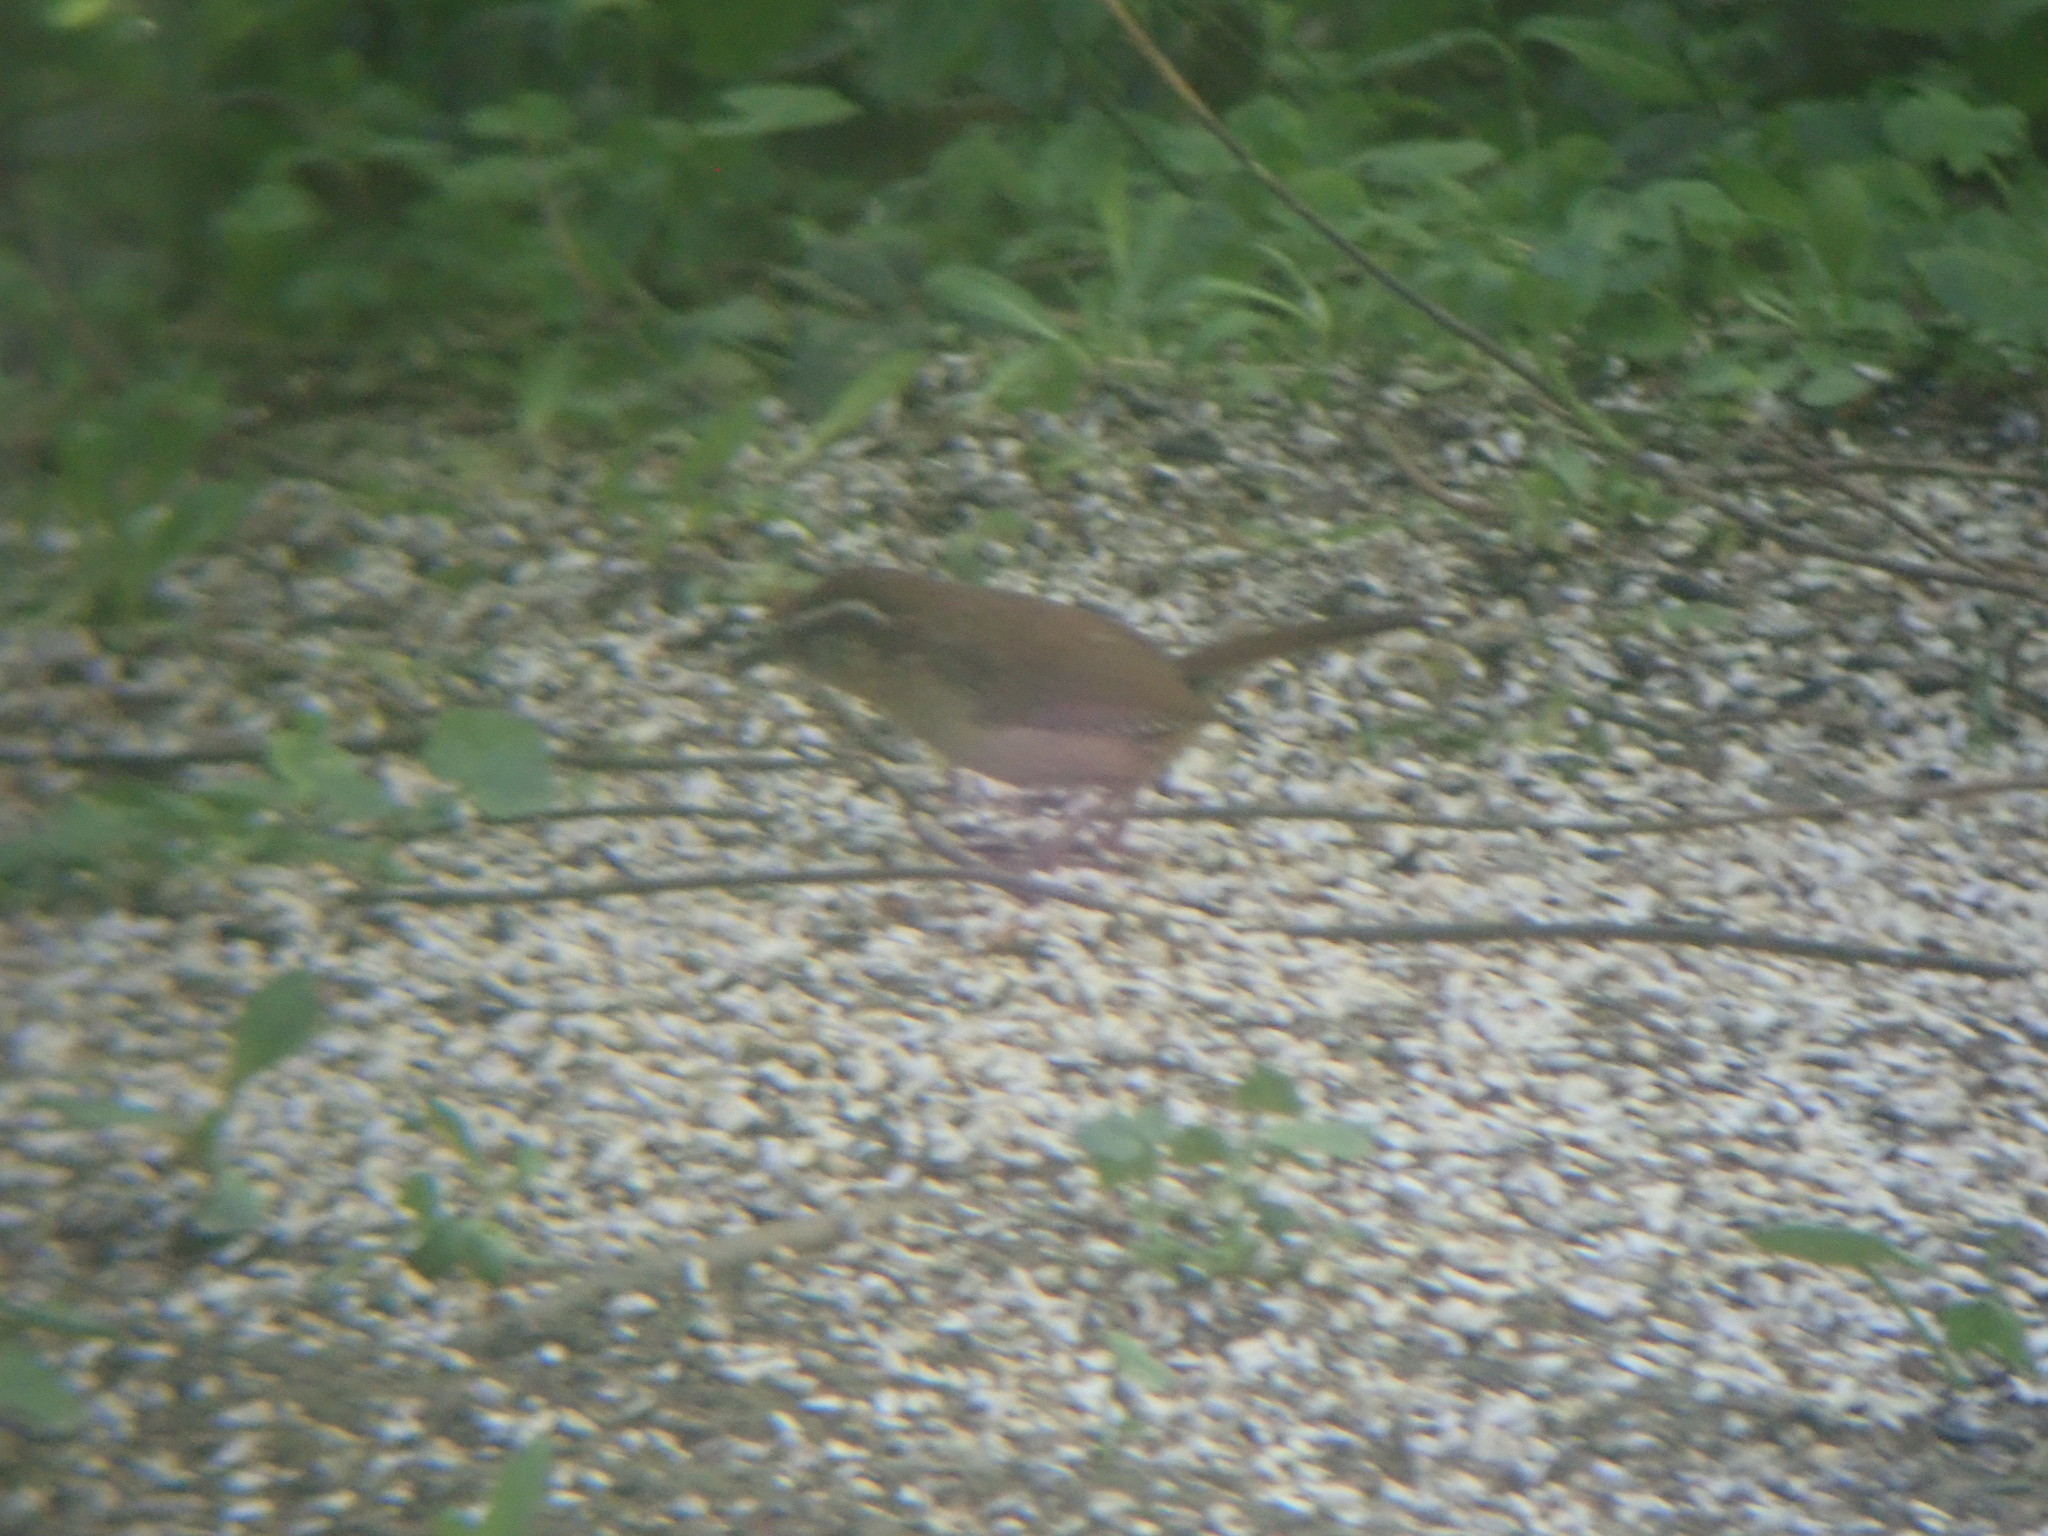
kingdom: Animalia
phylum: Chordata
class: Aves
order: Passeriformes
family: Troglodytidae
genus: Thryothorus
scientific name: Thryothorus ludovicianus
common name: Carolina wren
